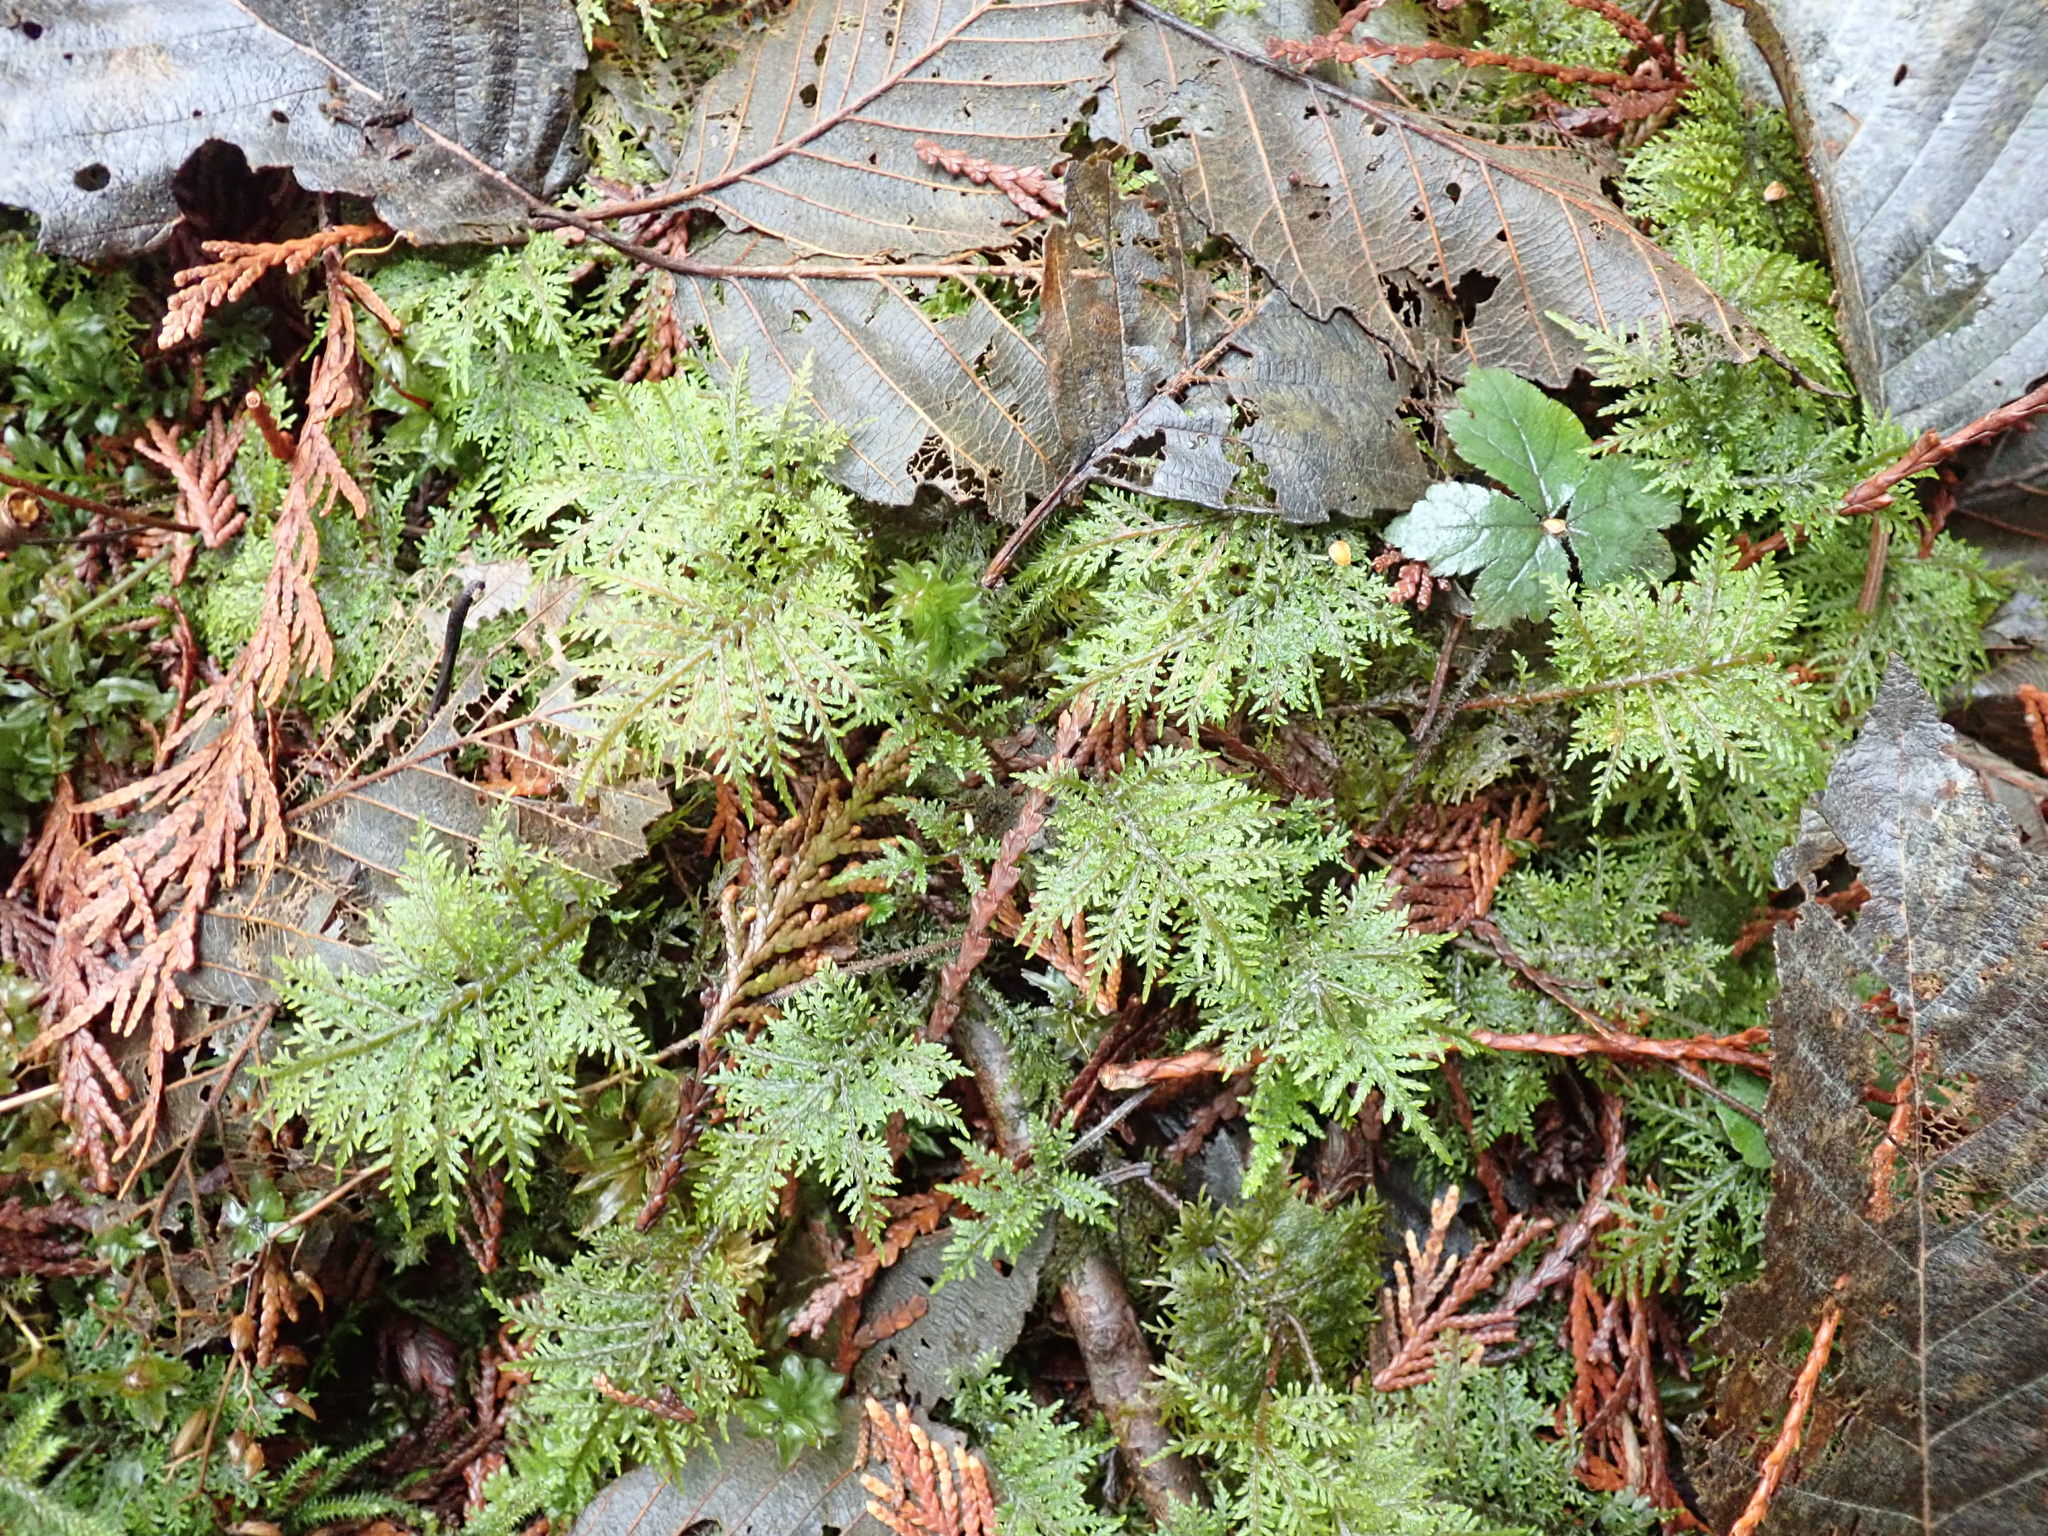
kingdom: Plantae
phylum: Bryophyta
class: Bryopsida
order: Hypnales
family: Hylocomiaceae
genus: Hylocomium
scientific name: Hylocomium splendens
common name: Stairstep moss
